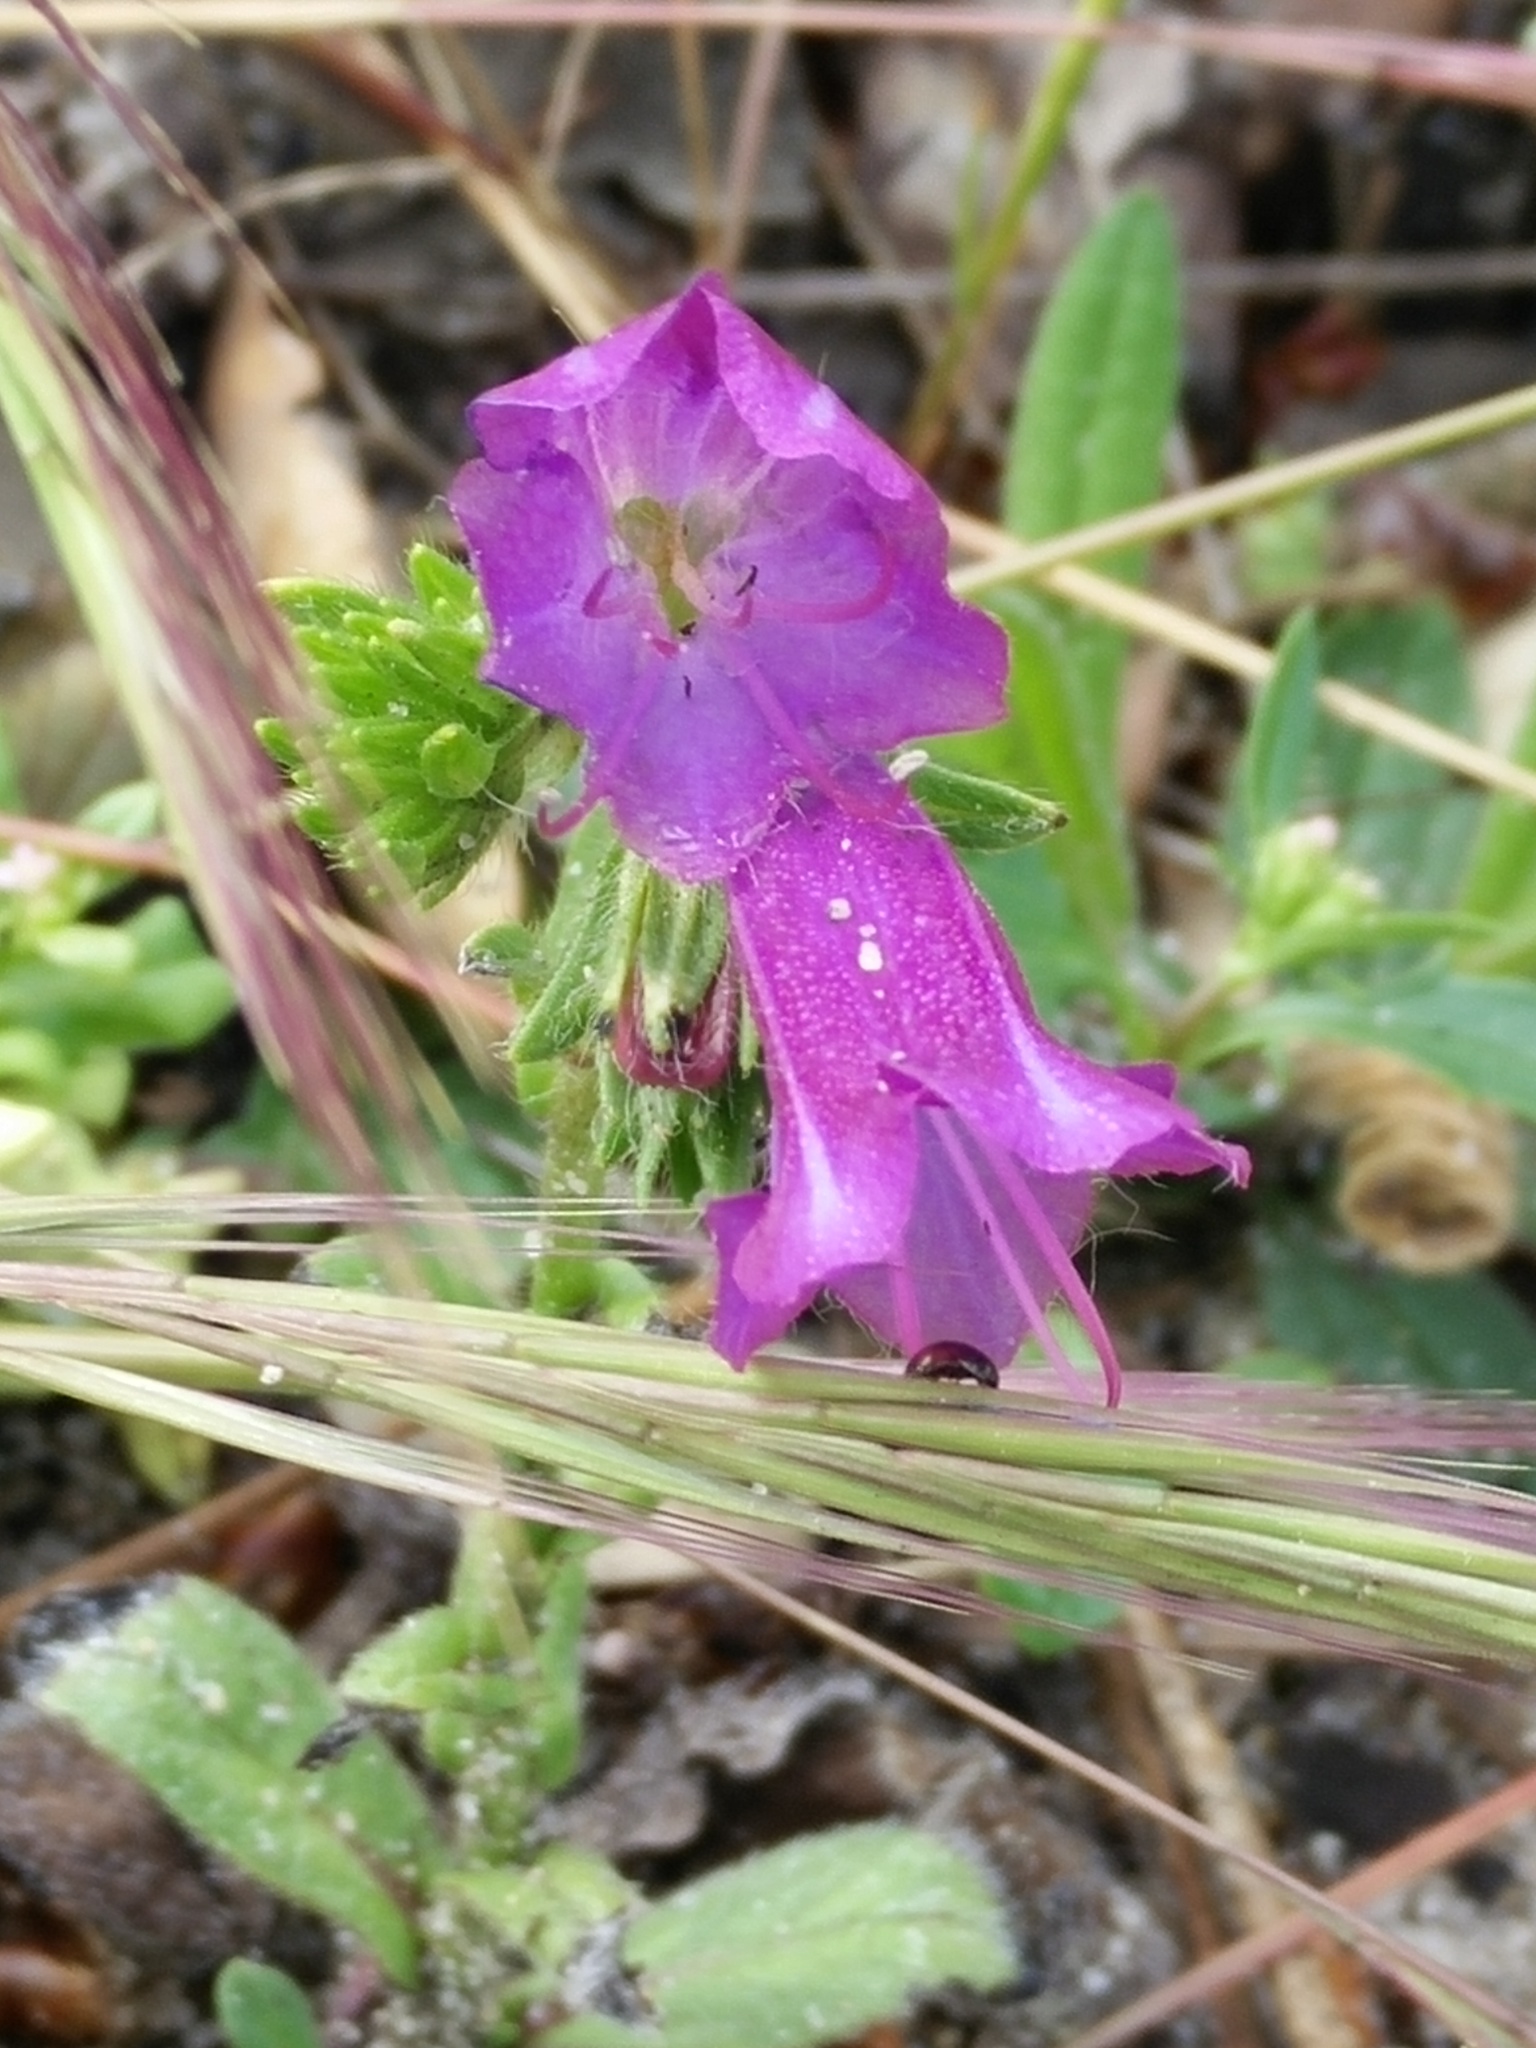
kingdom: Plantae
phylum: Tracheophyta
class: Magnoliopsida
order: Boraginales
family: Boraginaceae
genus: Echium
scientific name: Echium plantagineum
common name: Purple viper's-bugloss
